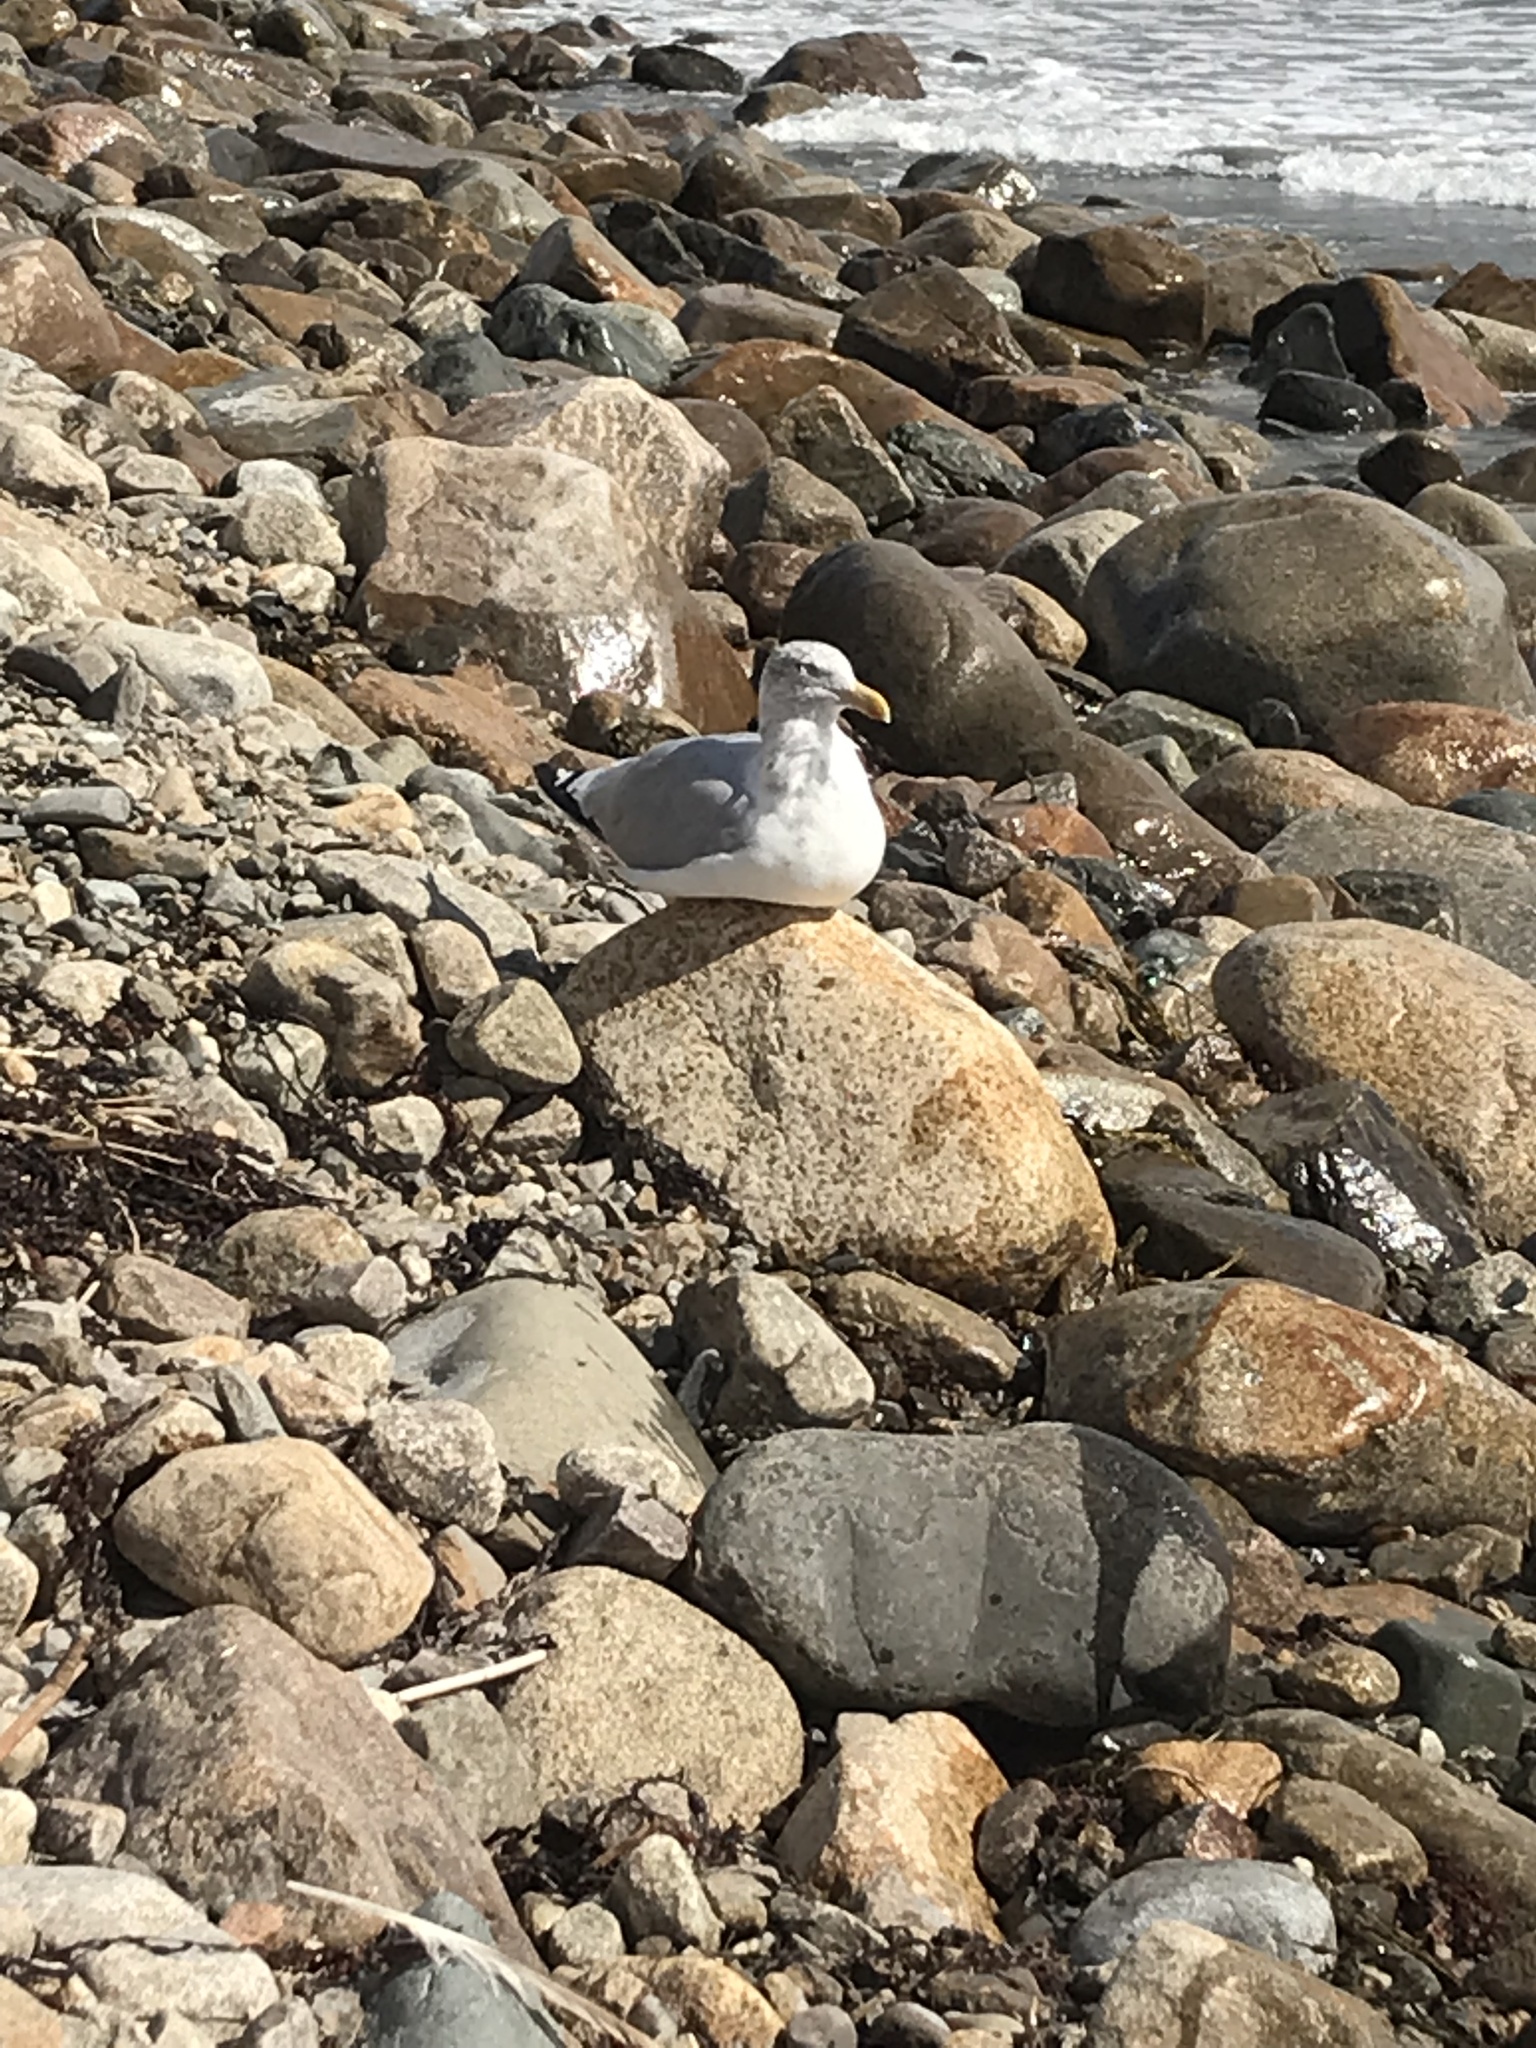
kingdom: Animalia
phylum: Chordata
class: Aves
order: Charadriiformes
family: Laridae
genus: Larus
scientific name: Larus argentatus
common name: Herring gull
